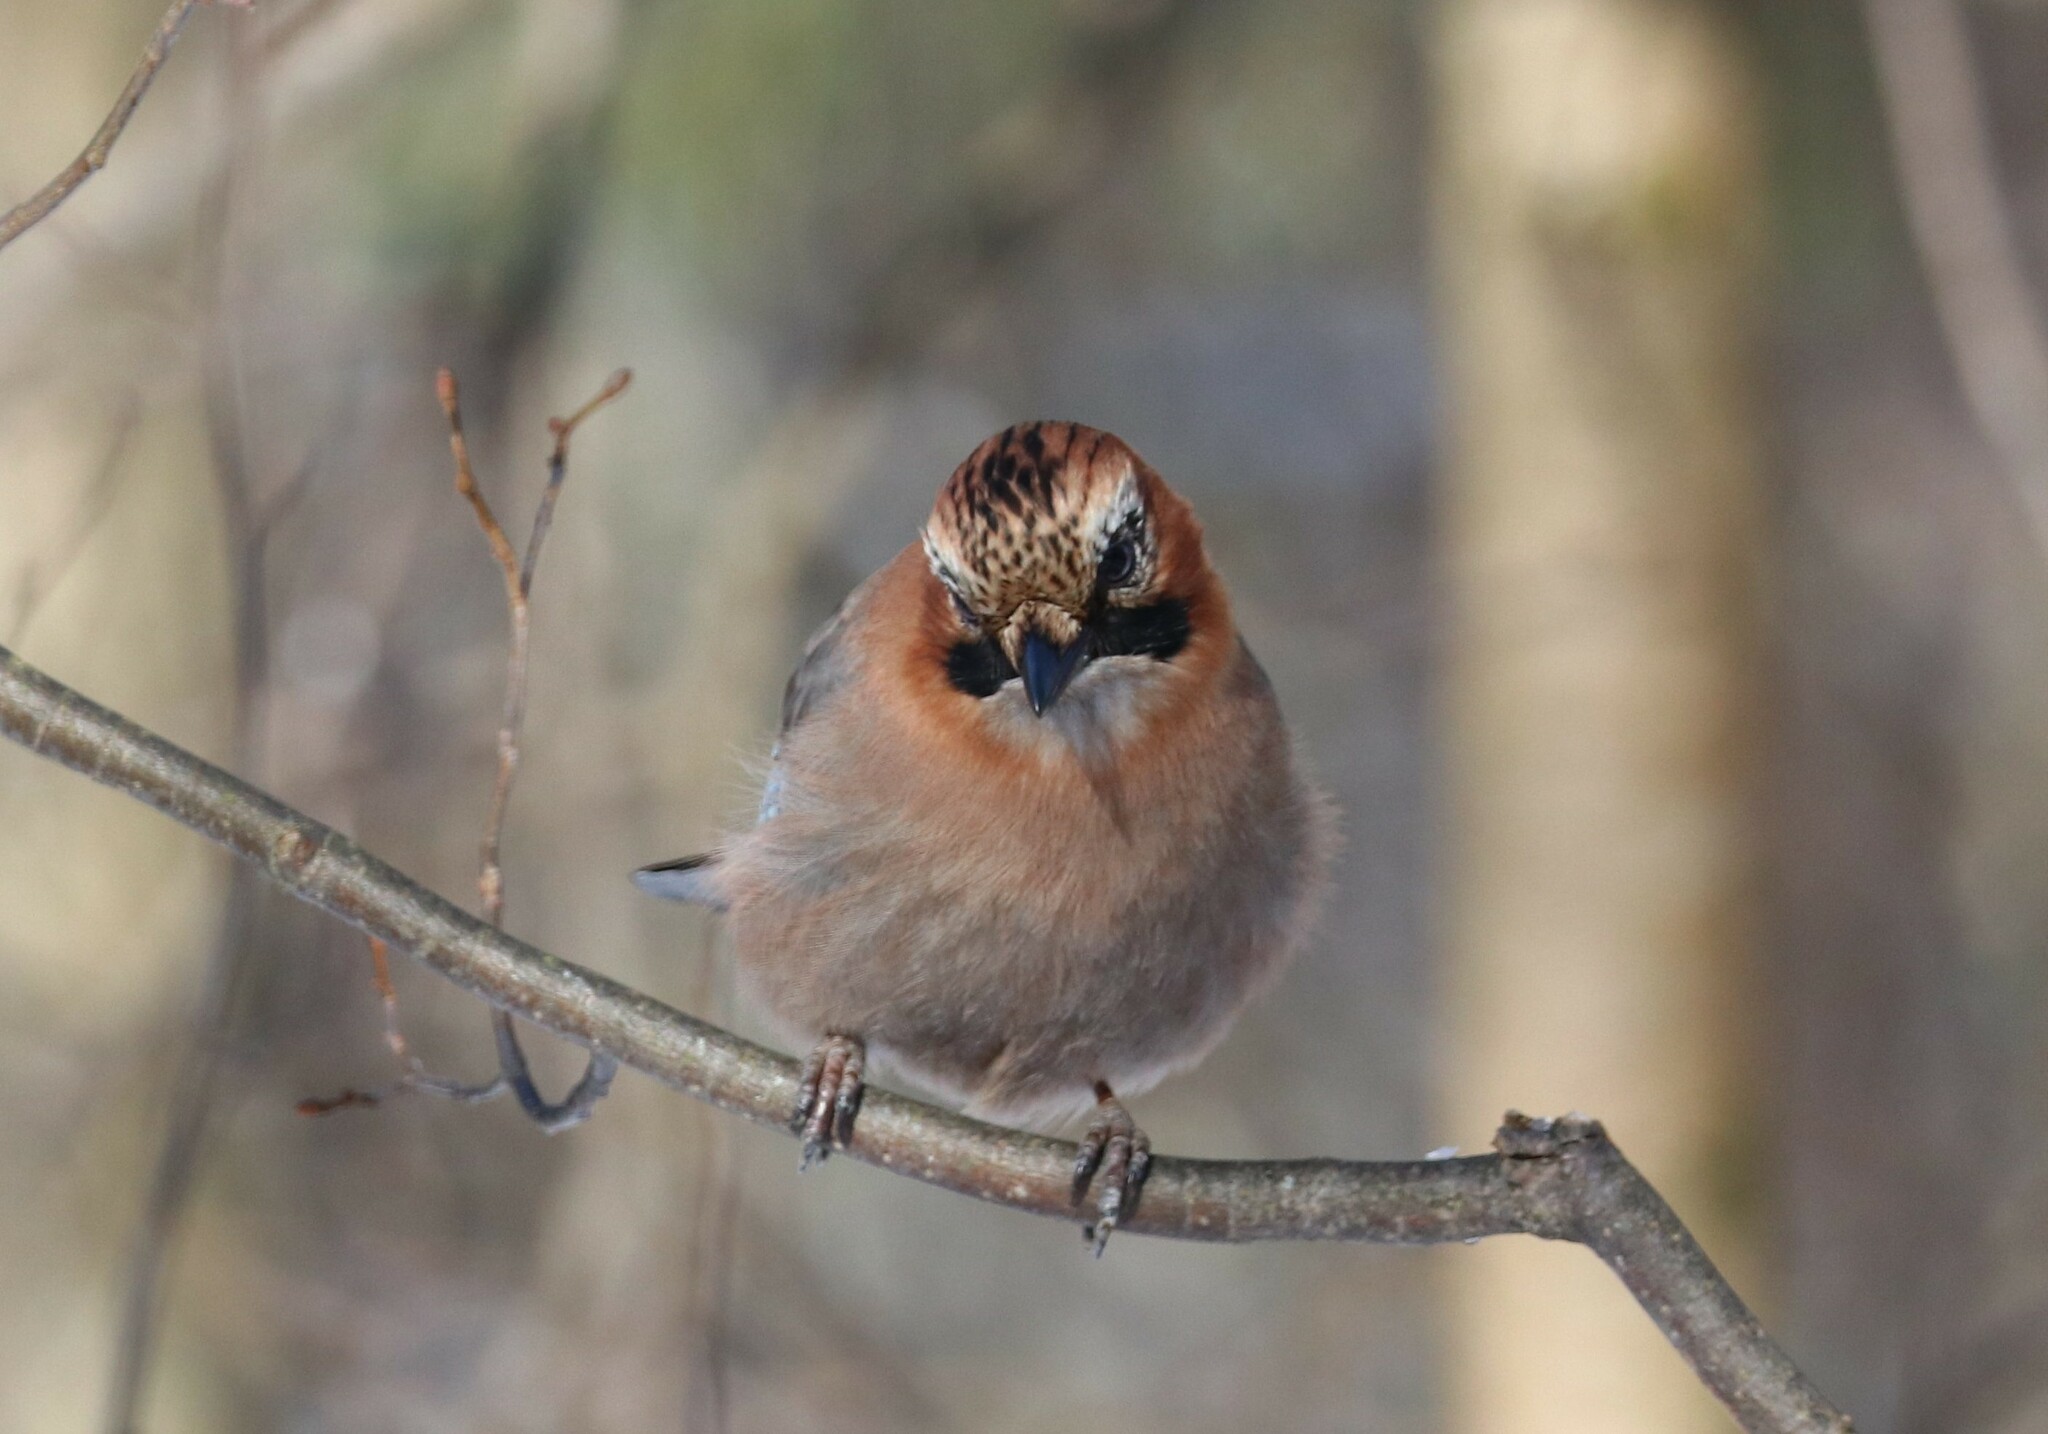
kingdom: Animalia
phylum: Chordata
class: Aves
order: Passeriformes
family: Corvidae
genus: Garrulus
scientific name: Garrulus glandarius
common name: Eurasian jay
